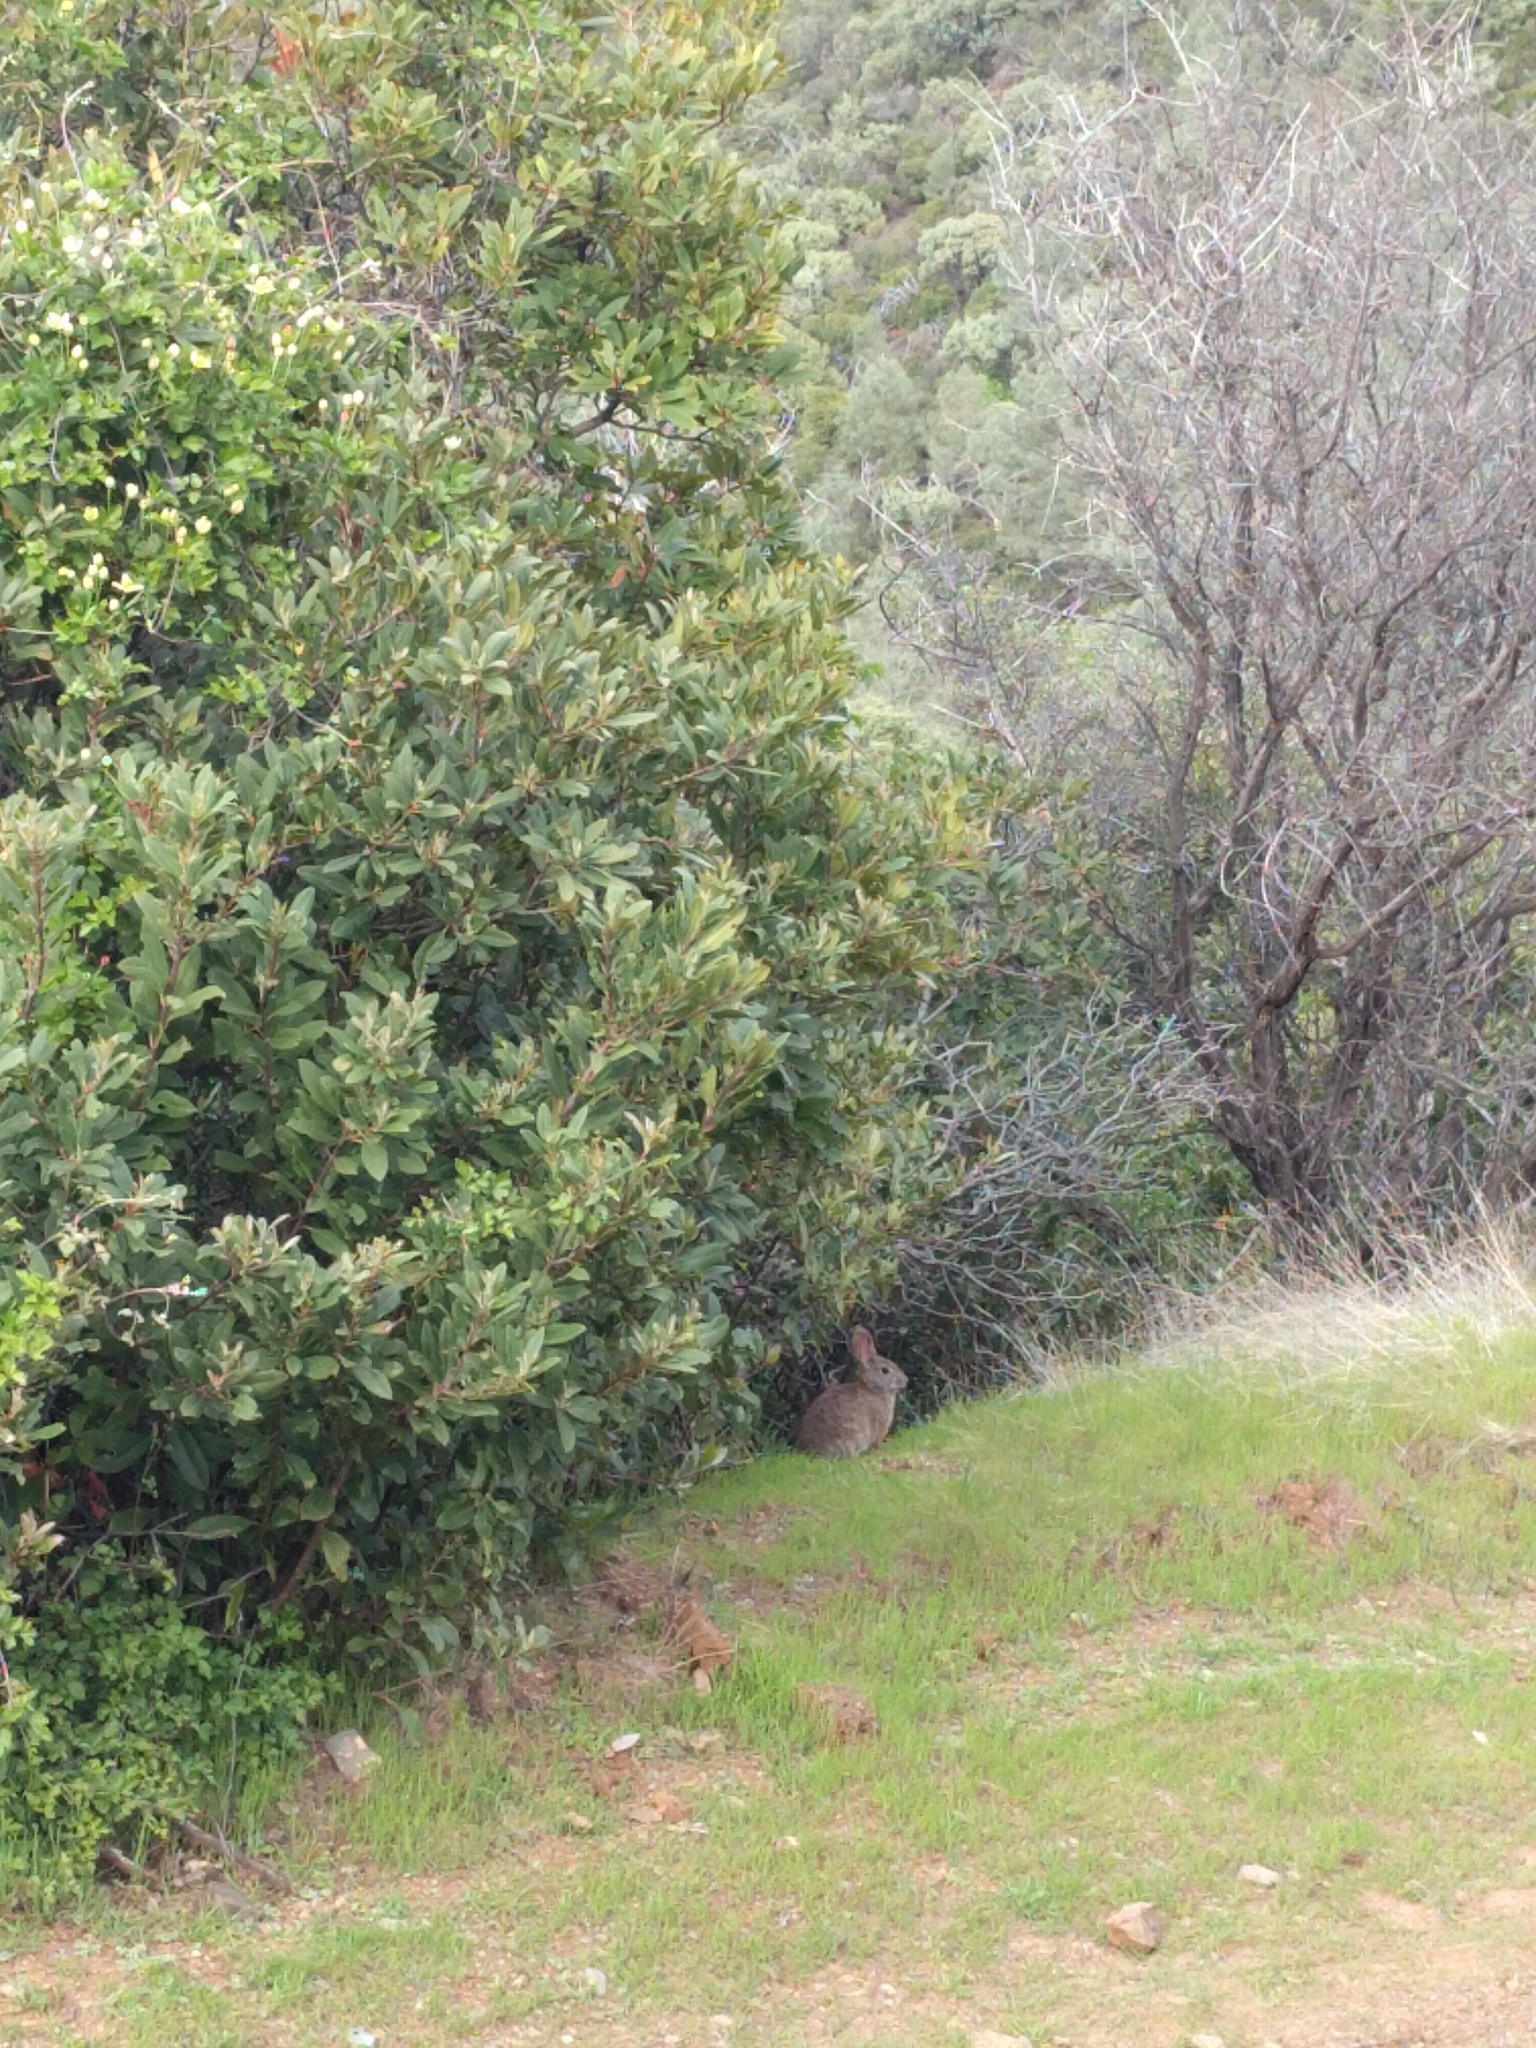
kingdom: Animalia
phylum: Chordata
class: Mammalia
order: Lagomorpha
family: Leporidae
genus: Sylvilagus
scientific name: Sylvilagus bachmani
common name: Brush rabbit
